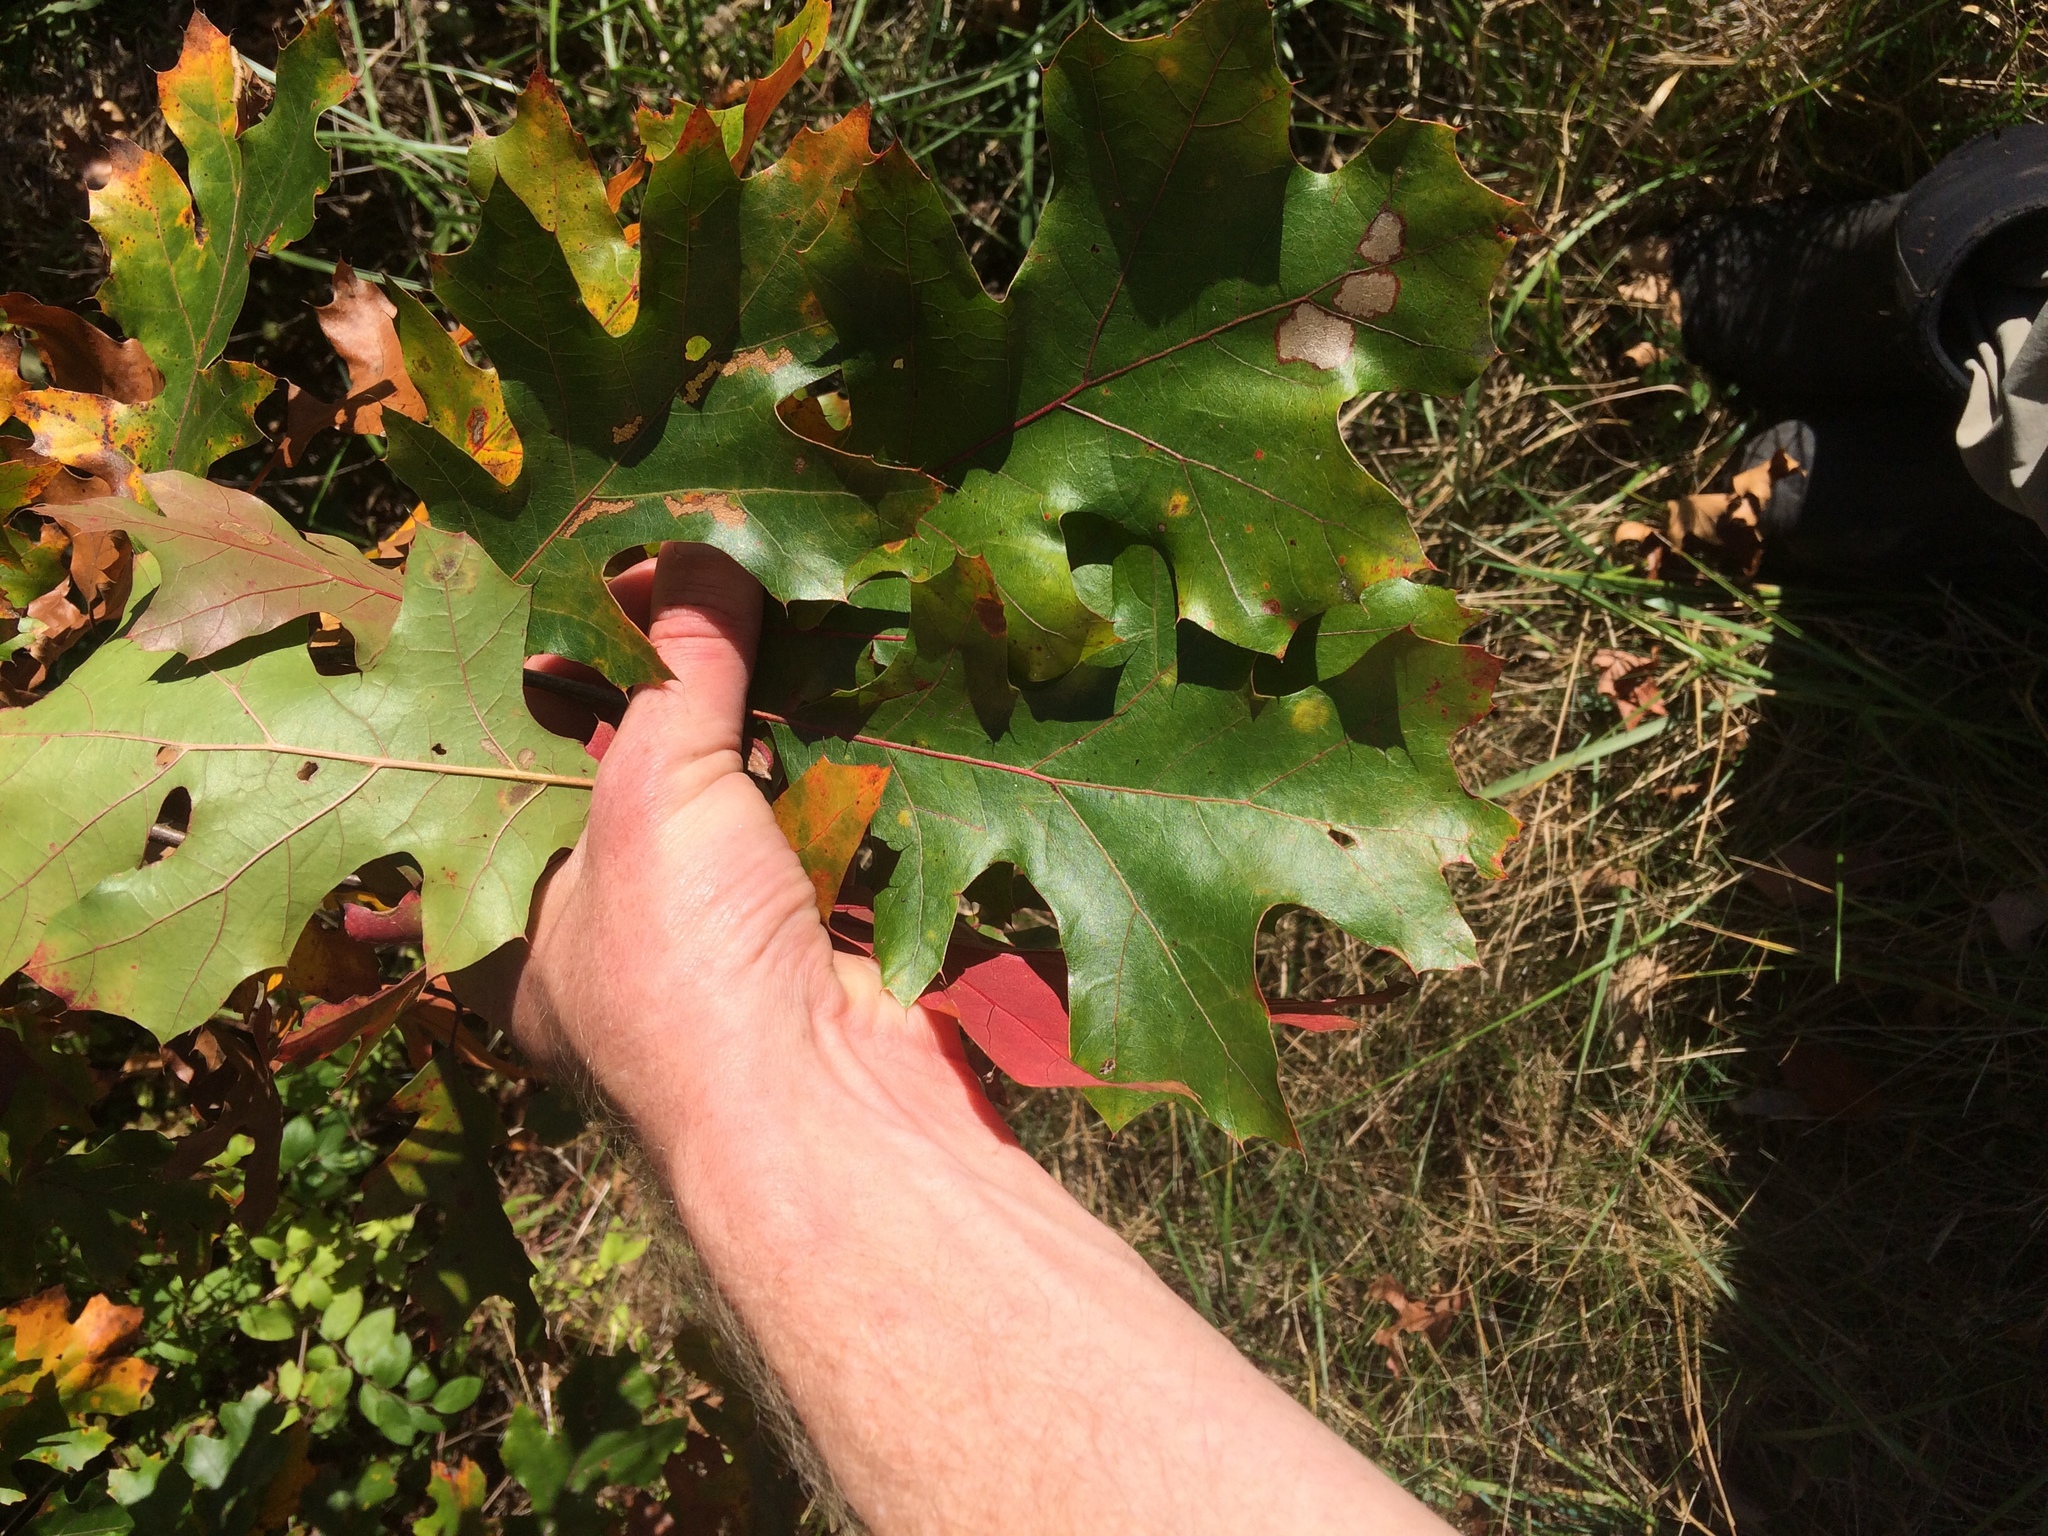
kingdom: Plantae
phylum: Tracheophyta
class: Magnoliopsida
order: Fagales
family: Fagaceae
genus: Quercus
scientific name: Quercus velutina
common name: Black oak
